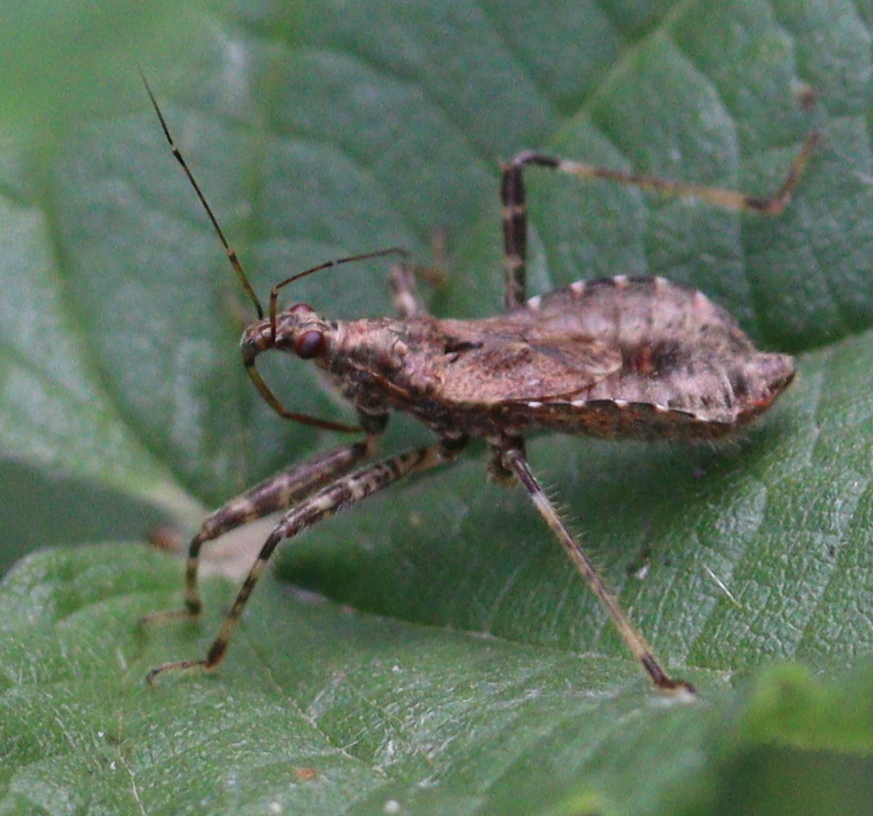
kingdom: Animalia
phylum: Arthropoda
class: Insecta
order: Hemiptera
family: Nabidae
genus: Himacerus
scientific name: Himacerus apterus
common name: Tree damsel bug
